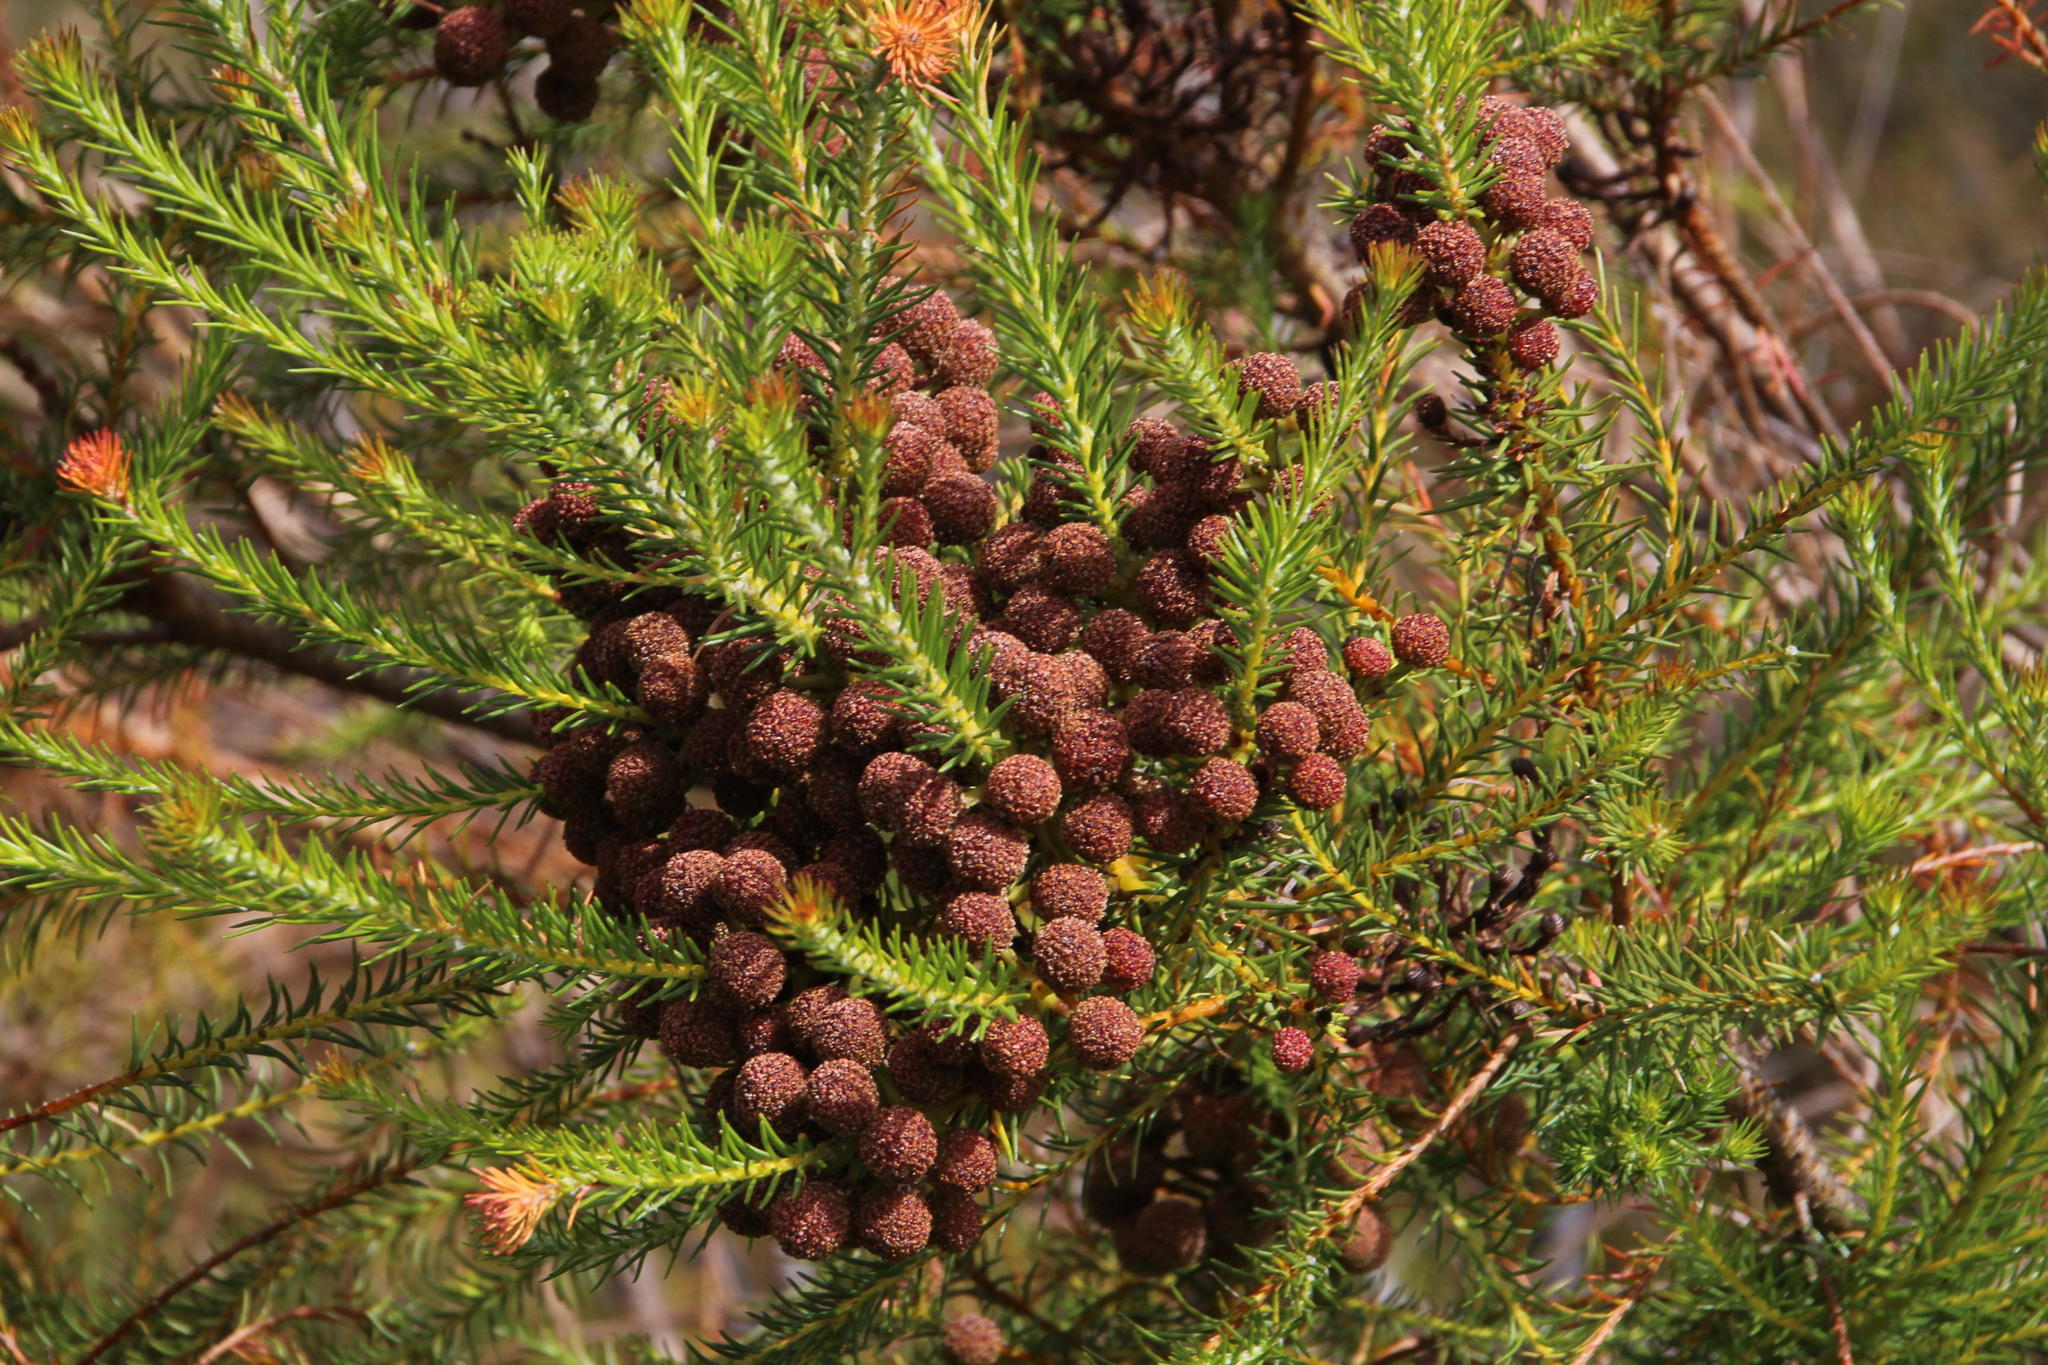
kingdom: Plantae
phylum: Tracheophyta
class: Magnoliopsida
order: Bruniales
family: Bruniaceae
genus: Berzelia
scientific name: Berzelia lanuginosa
